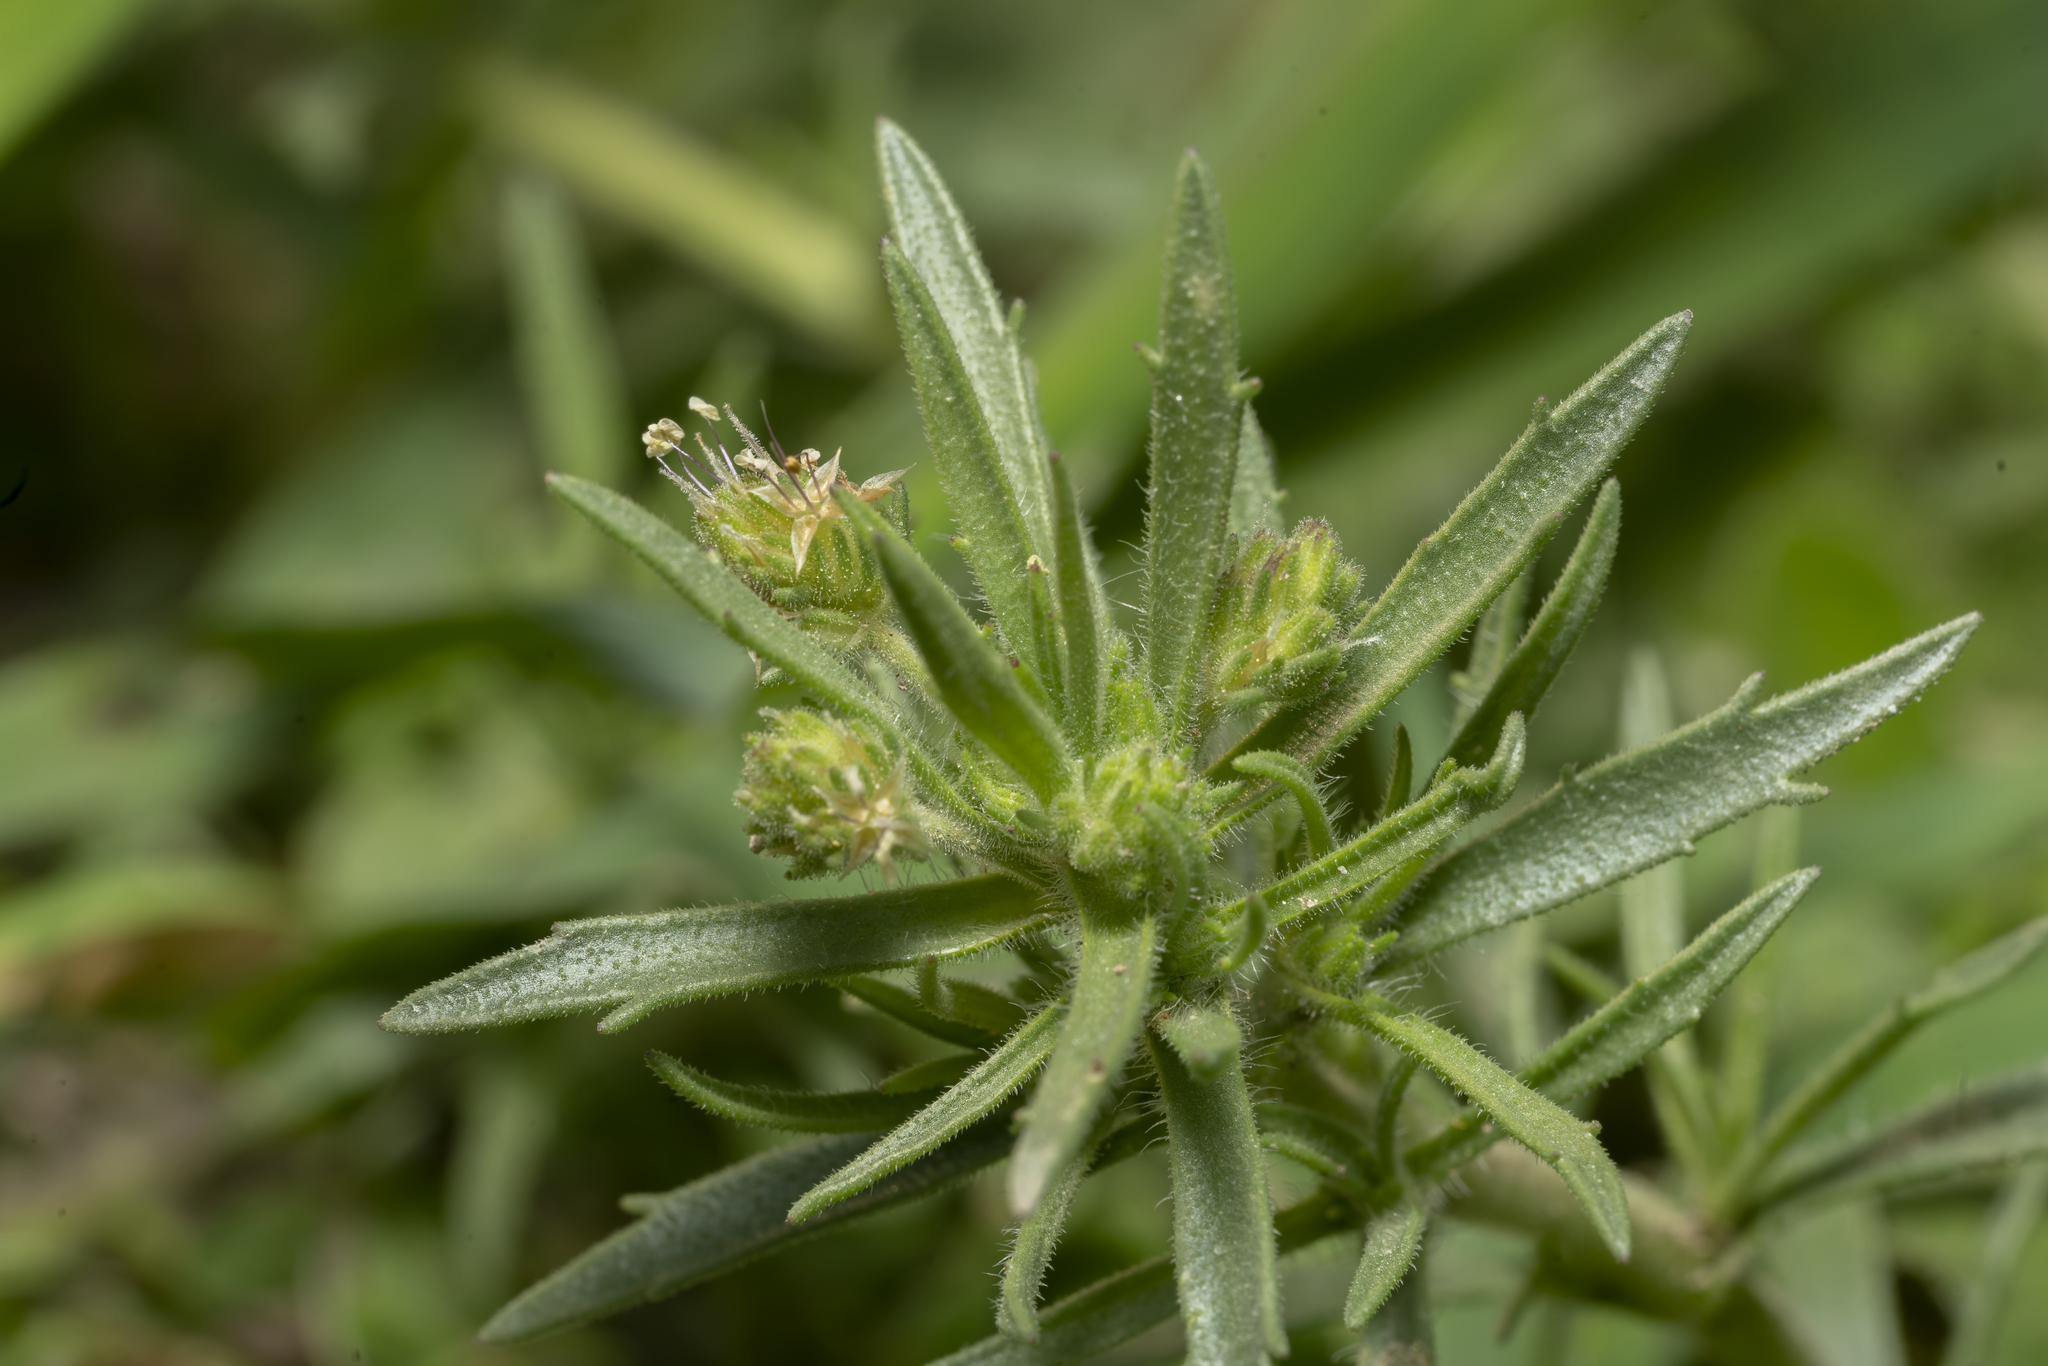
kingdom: Plantae
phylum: Tracheophyta
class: Magnoliopsida
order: Lamiales
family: Plantaginaceae
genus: Plantago
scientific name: Plantago afra
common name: Glandular plantain
